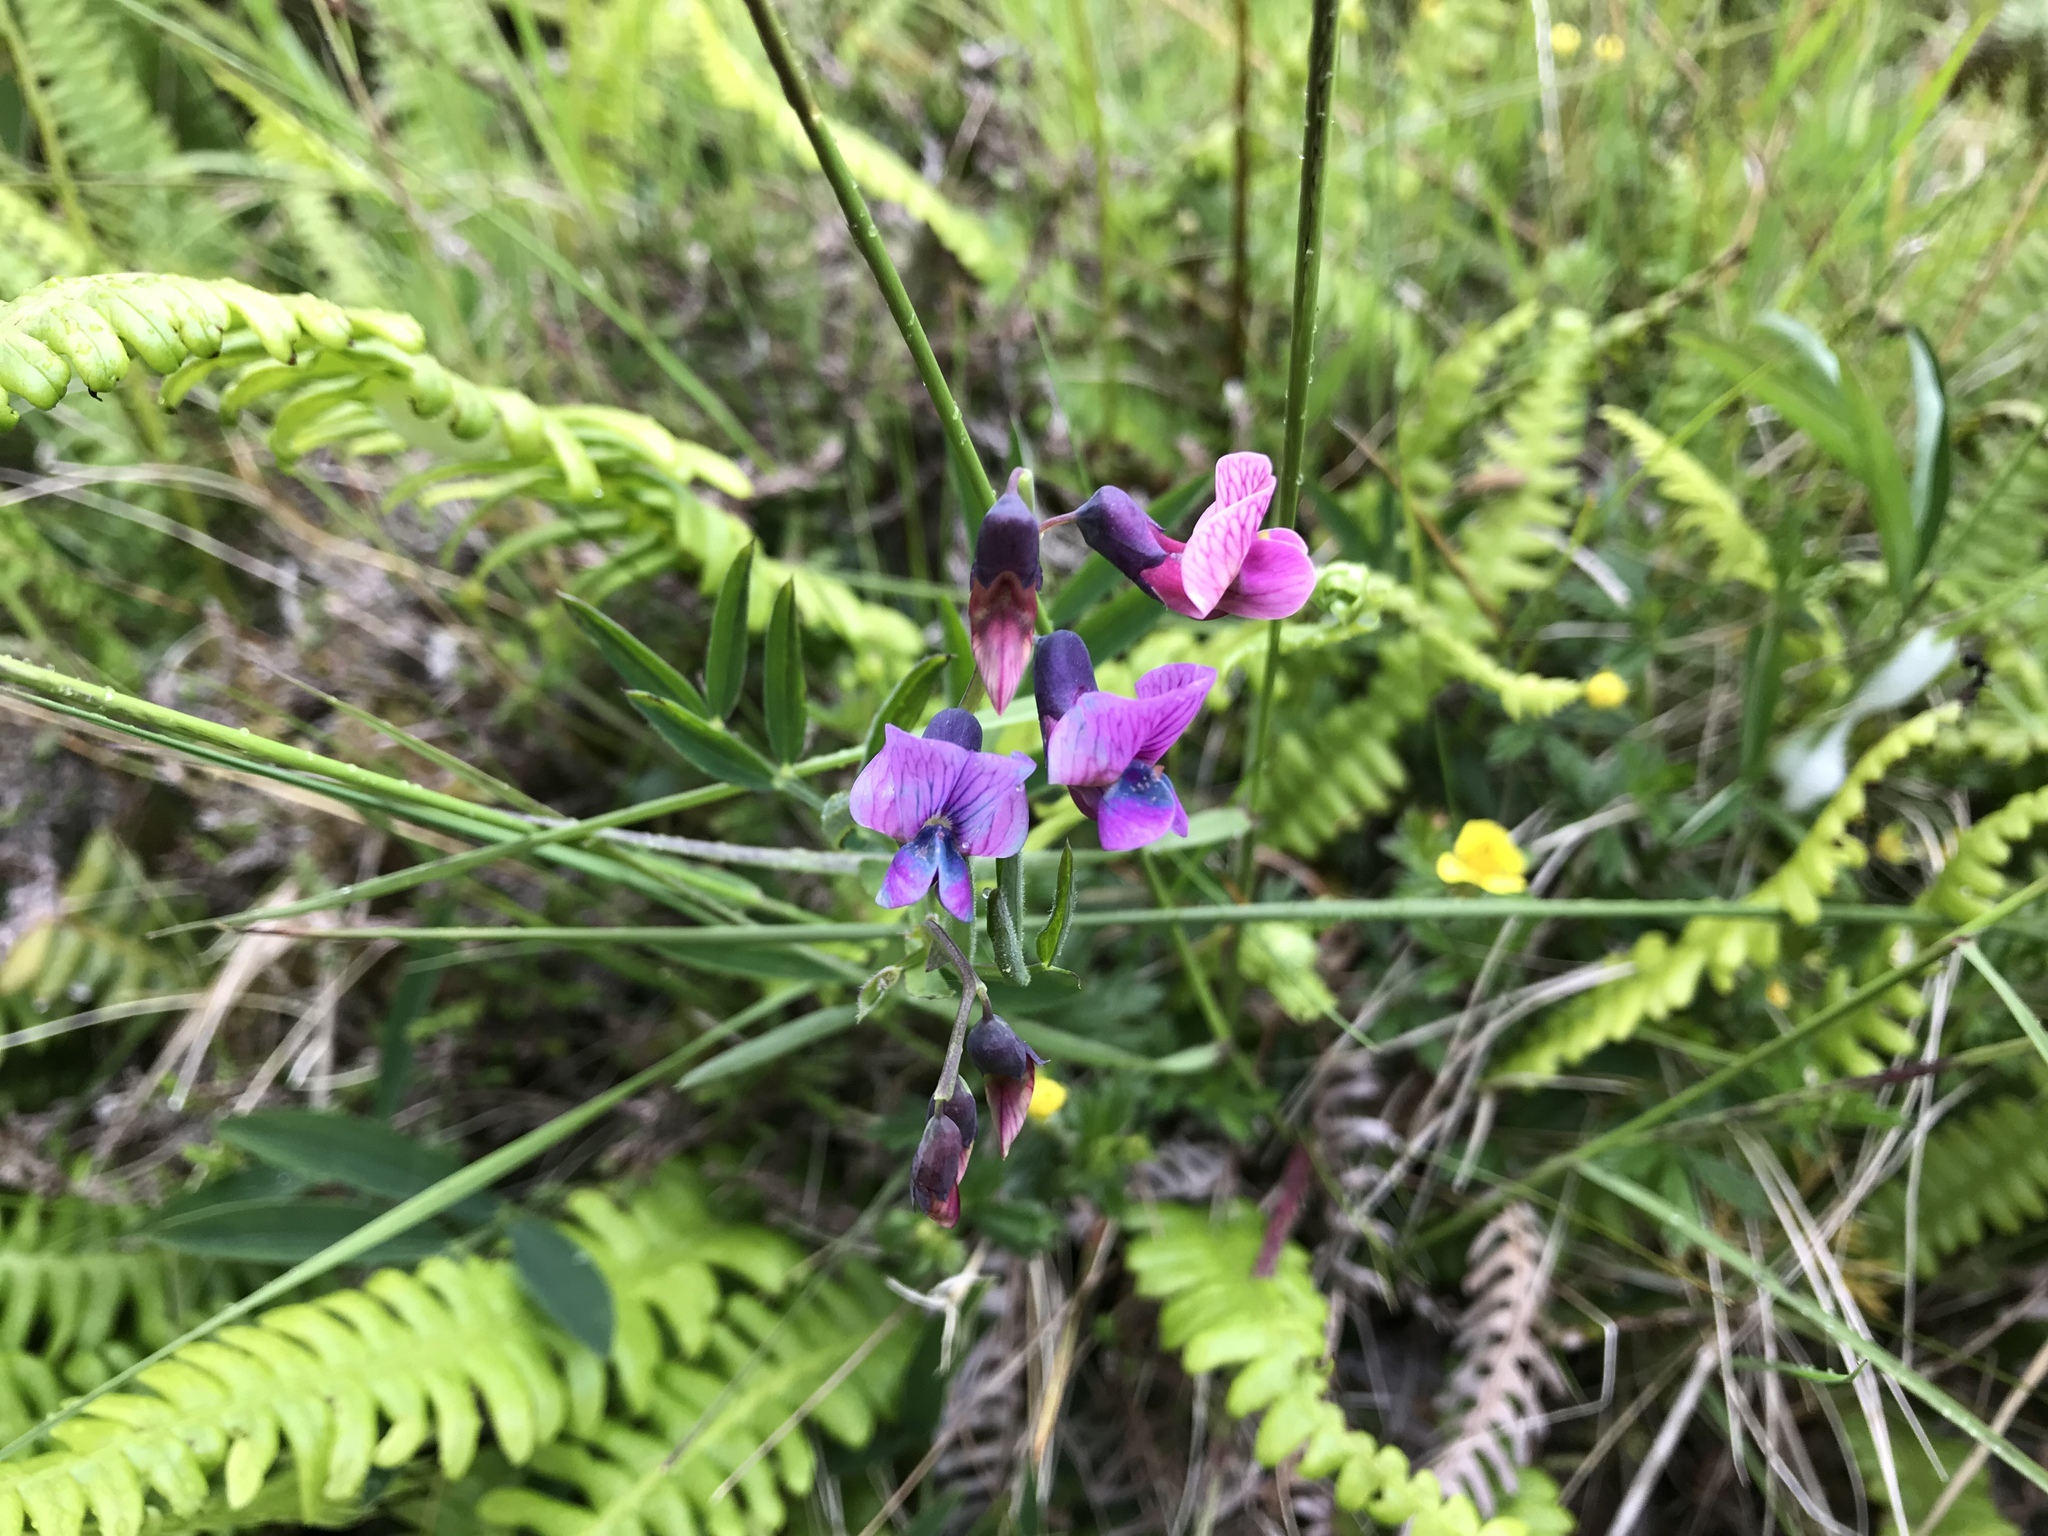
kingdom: Plantae
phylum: Tracheophyta
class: Magnoliopsida
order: Fabales
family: Fabaceae
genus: Lathyrus
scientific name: Lathyrus linifolius
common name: Bitter-vetch
